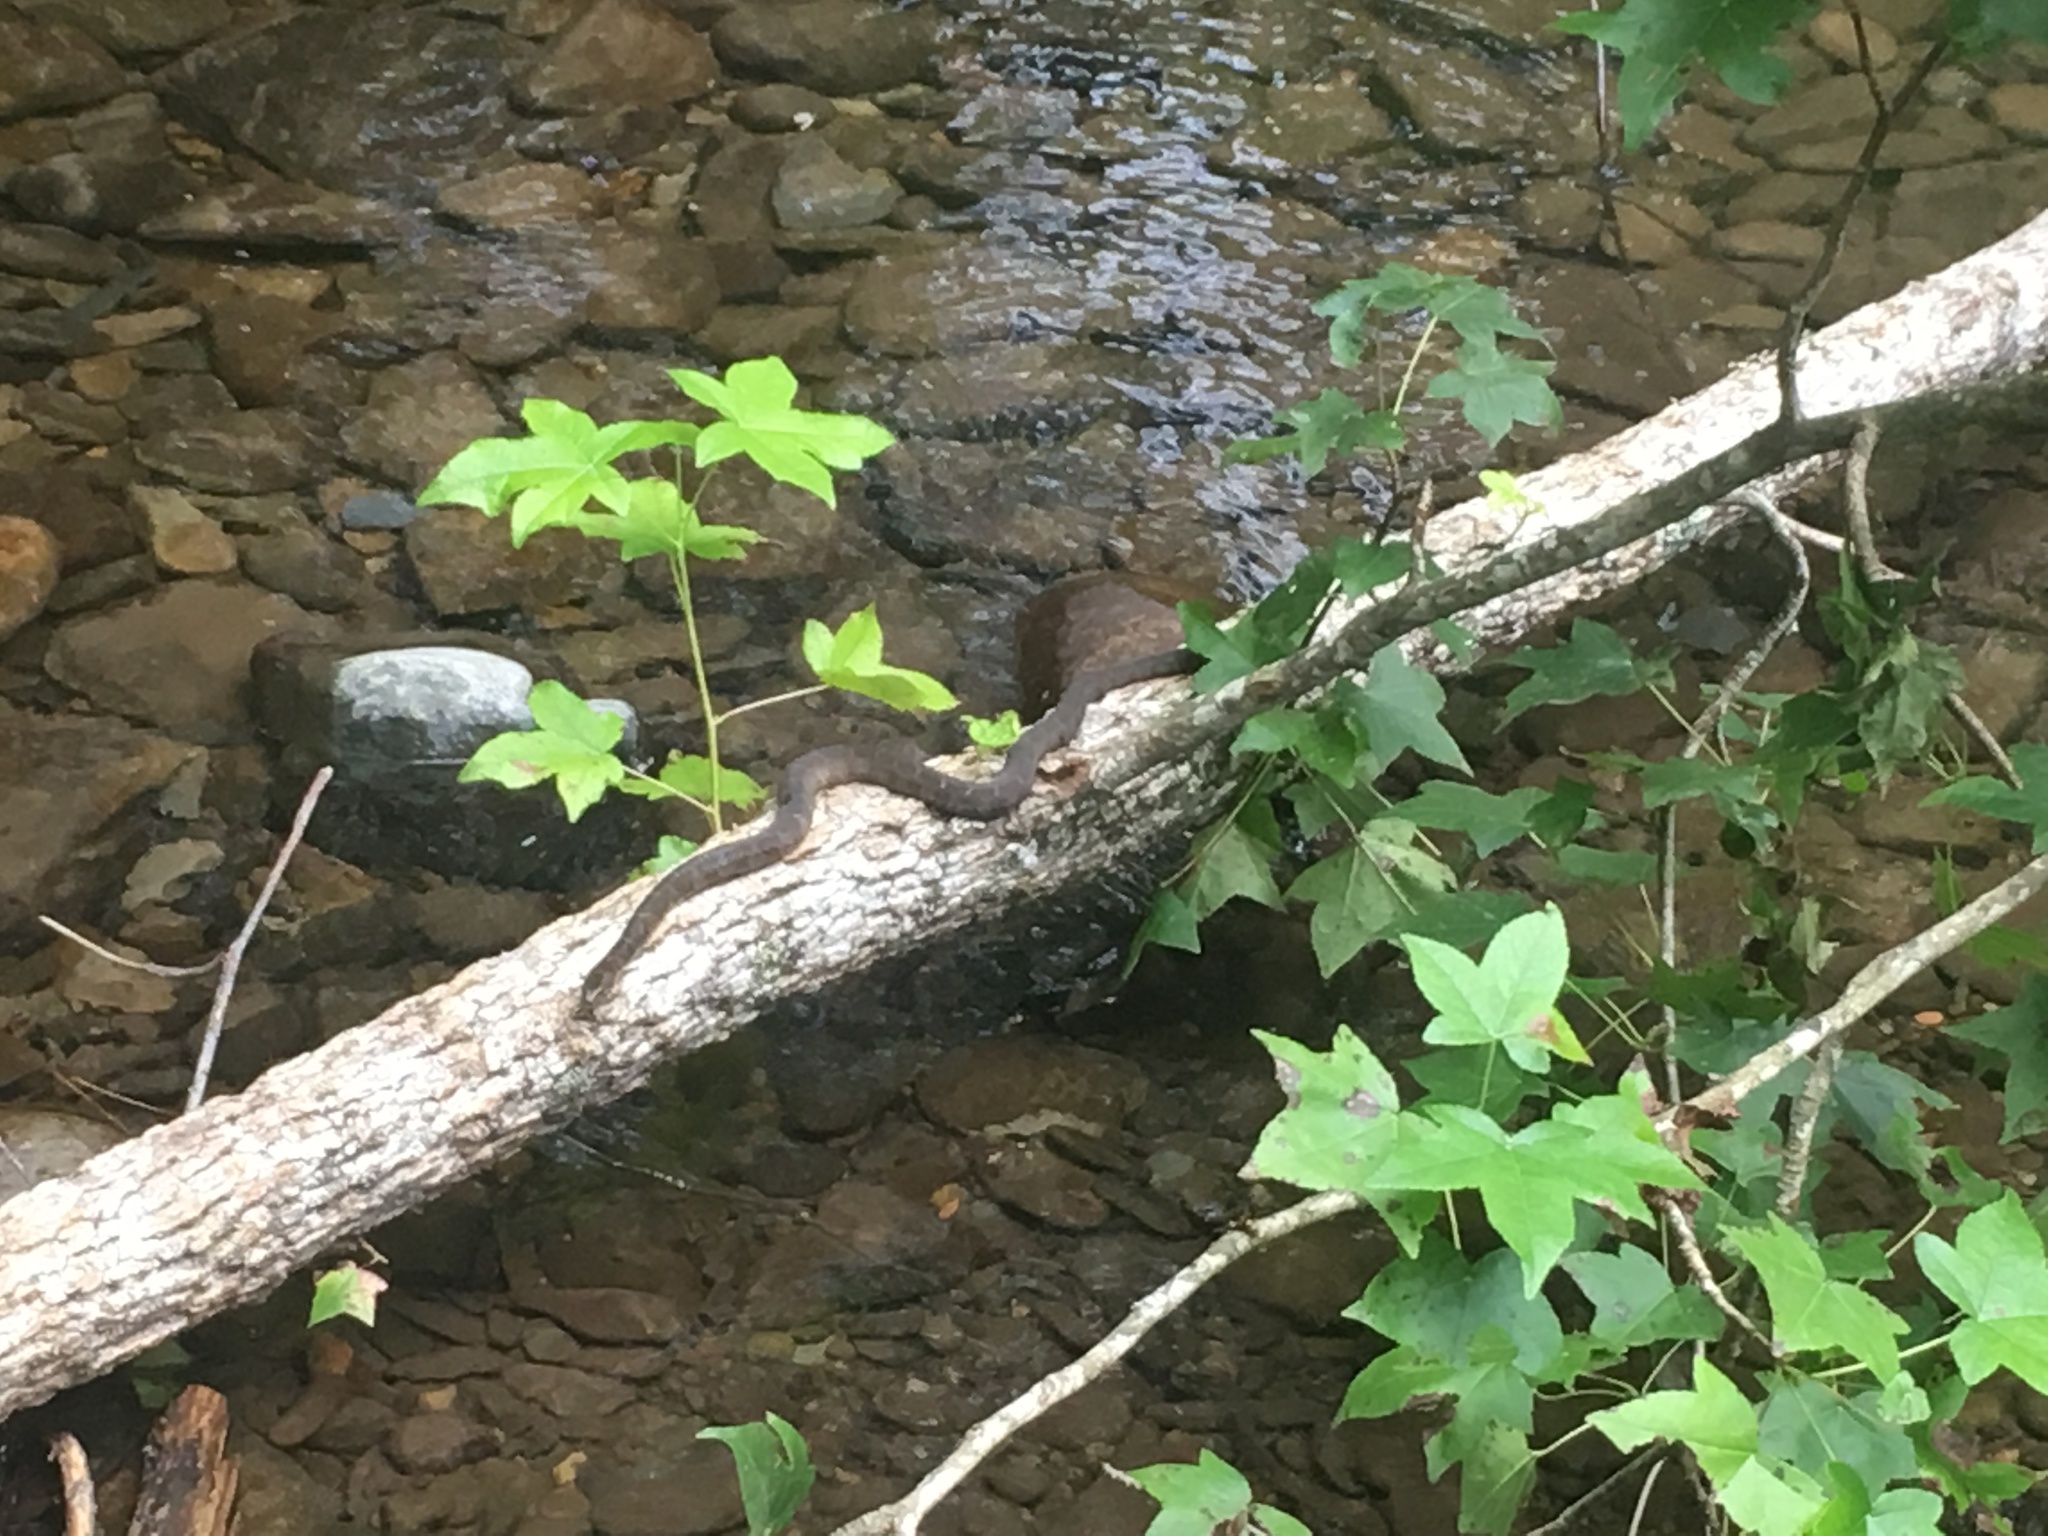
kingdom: Animalia
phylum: Chordata
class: Squamata
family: Colubridae
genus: Nerodia
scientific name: Nerodia sipedon
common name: Northern water snake
